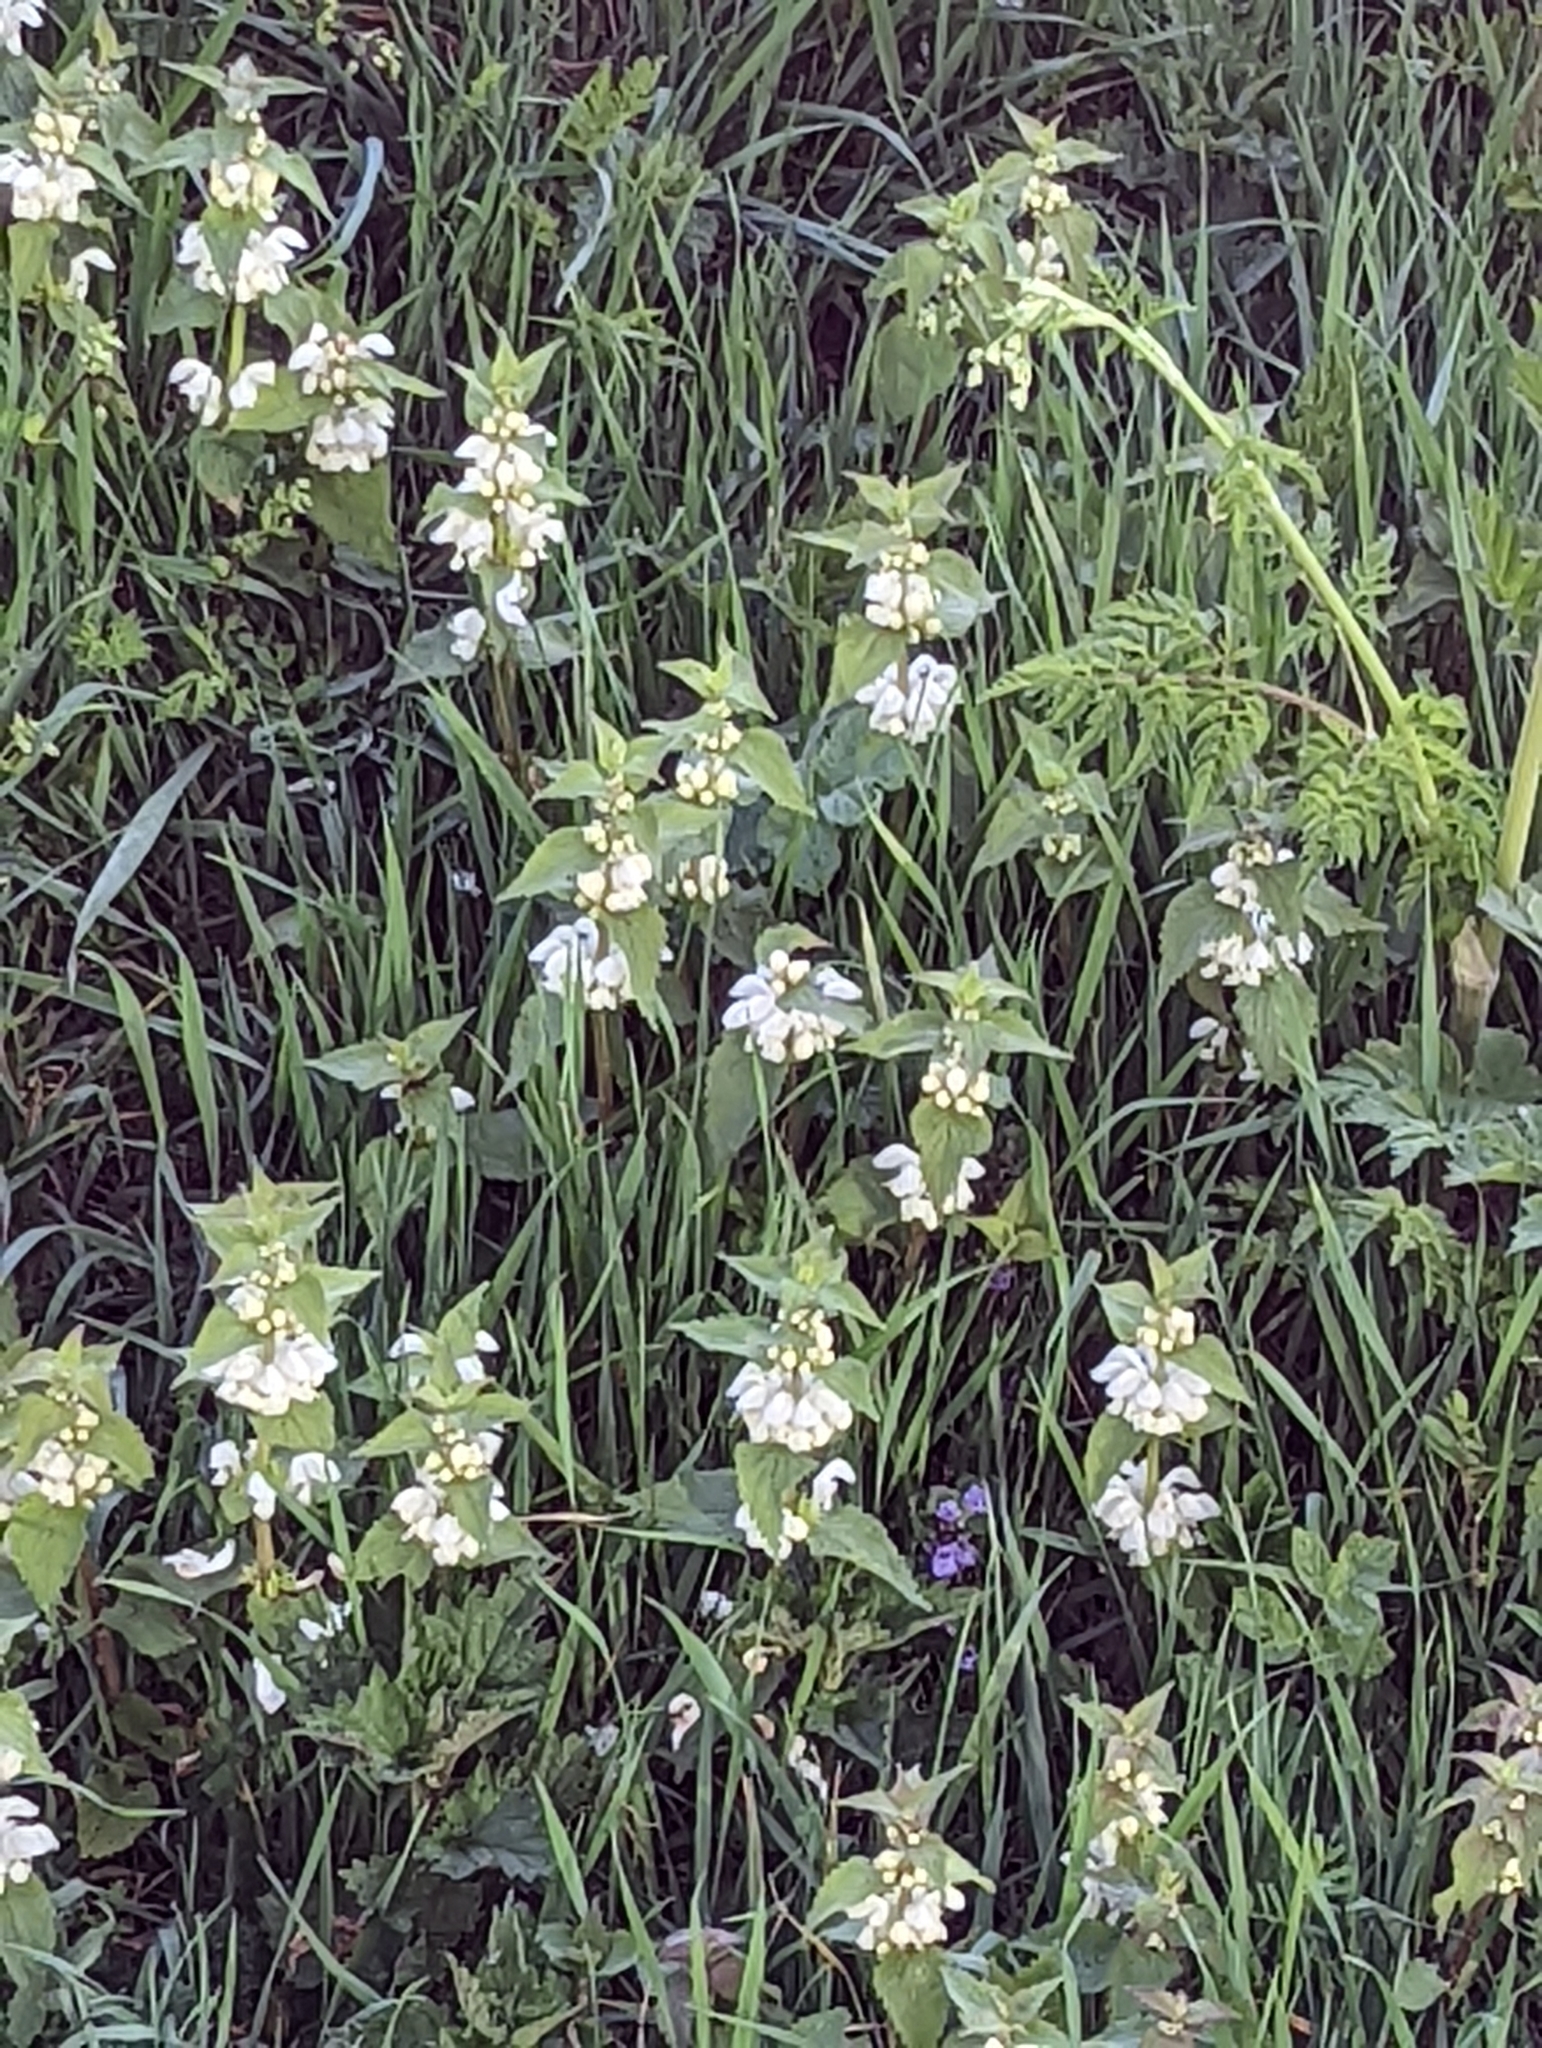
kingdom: Plantae
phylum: Tracheophyta
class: Magnoliopsida
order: Lamiales
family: Lamiaceae
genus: Lamium
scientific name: Lamium album
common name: White dead-nettle
